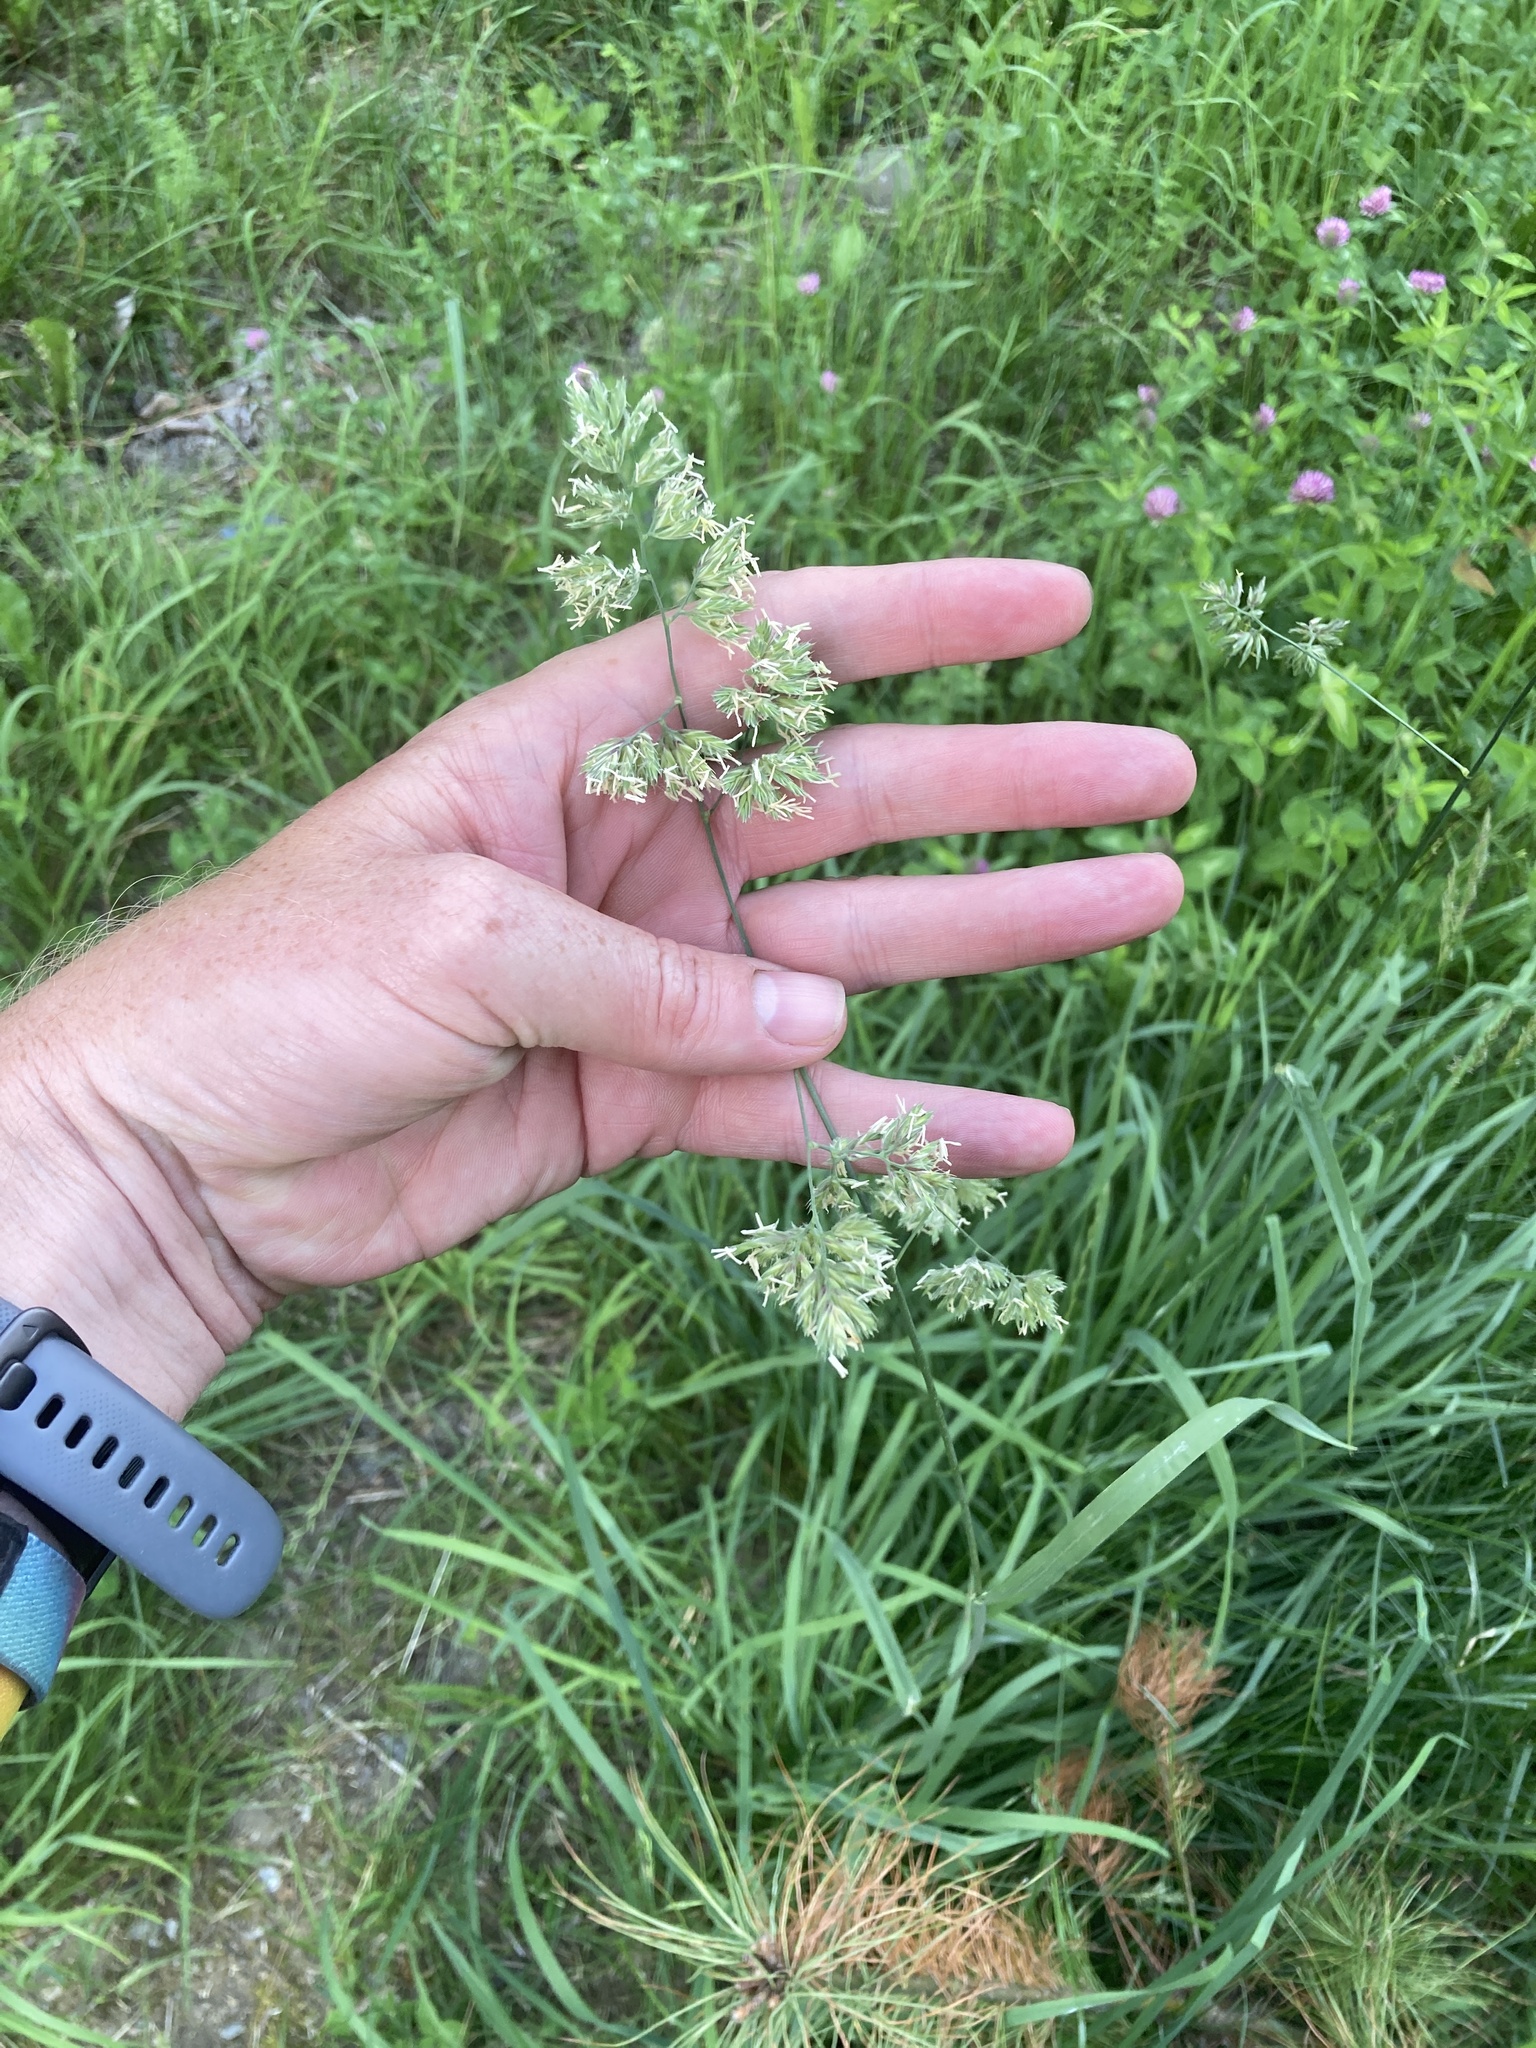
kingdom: Plantae
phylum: Tracheophyta
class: Liliopsida
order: Poales
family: Poaceae
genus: Dactylis
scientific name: Dactylis glomerata
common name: Orchardgrass
